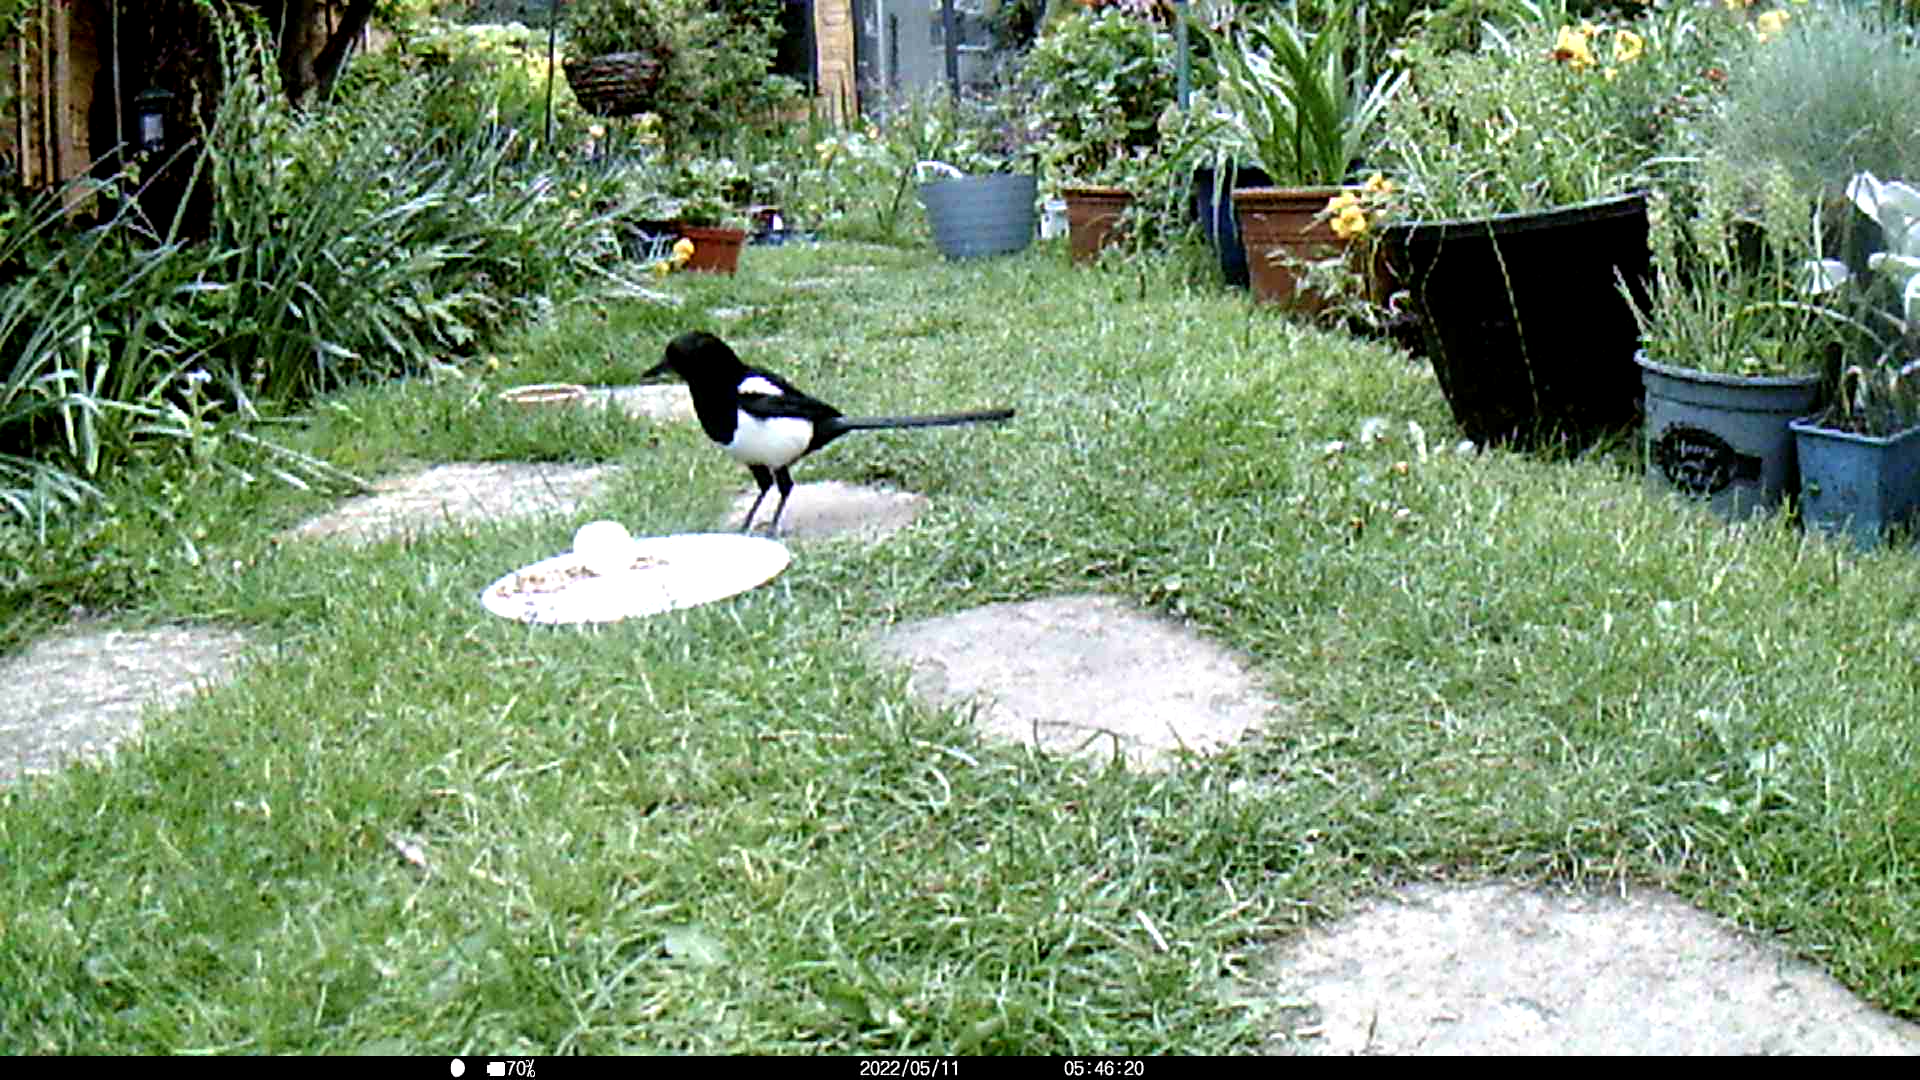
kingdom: Animalia
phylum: Chordata
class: Aves
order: Passeriformes
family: Corvidae
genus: Pica
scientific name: Pica pica
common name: Eurasian magpie
